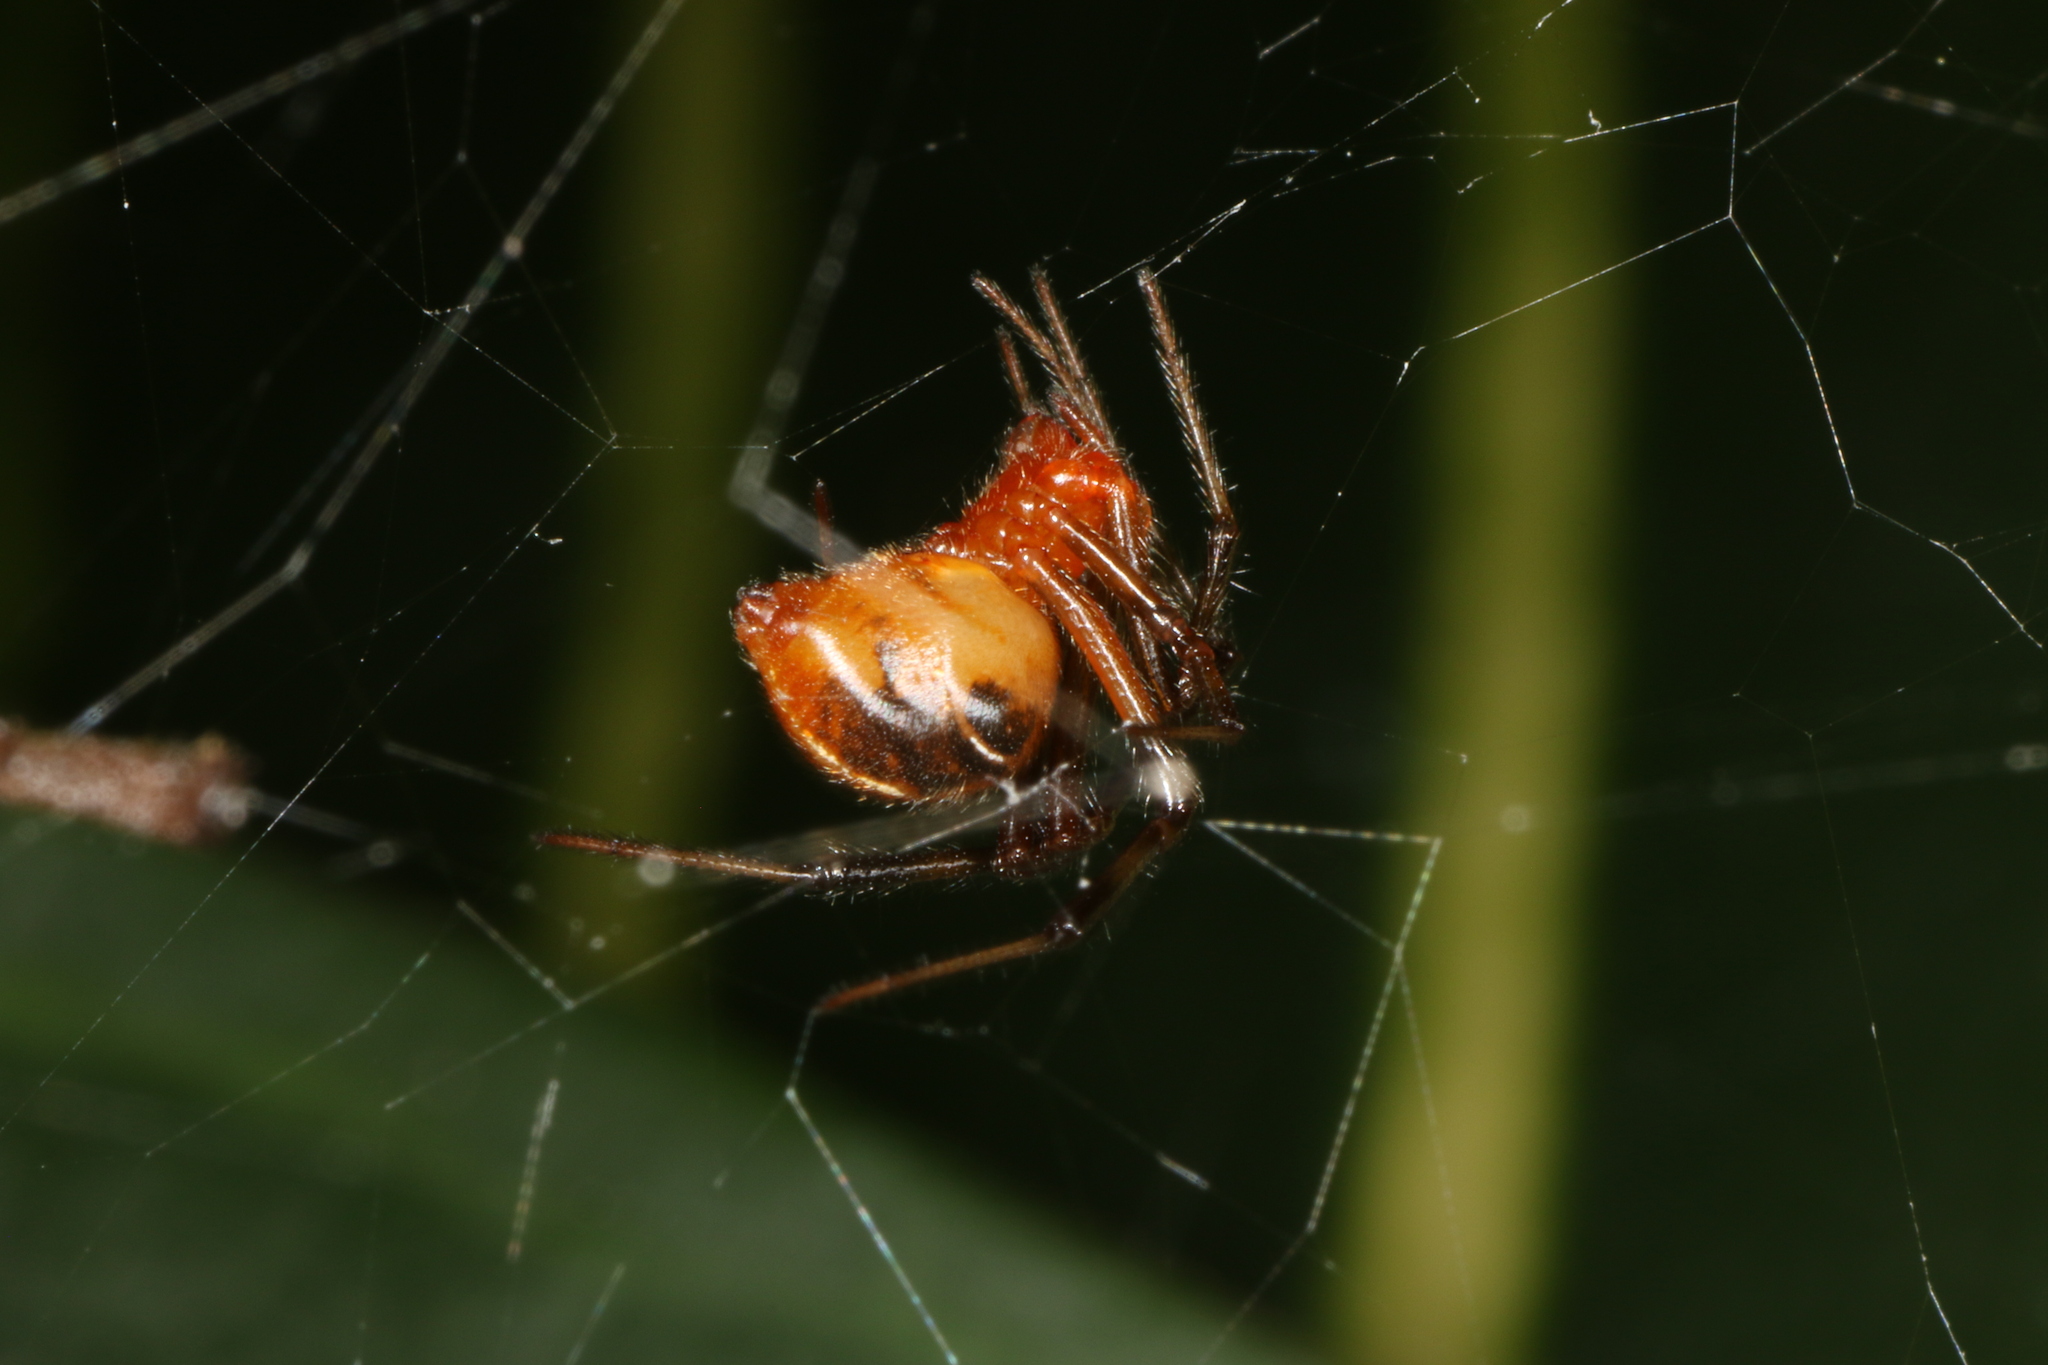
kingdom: Animalia
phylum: Arthropoda
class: Arachnida
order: Araneae
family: Theridiidae
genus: Nihonhimea
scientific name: Nihonhimea tesselata
